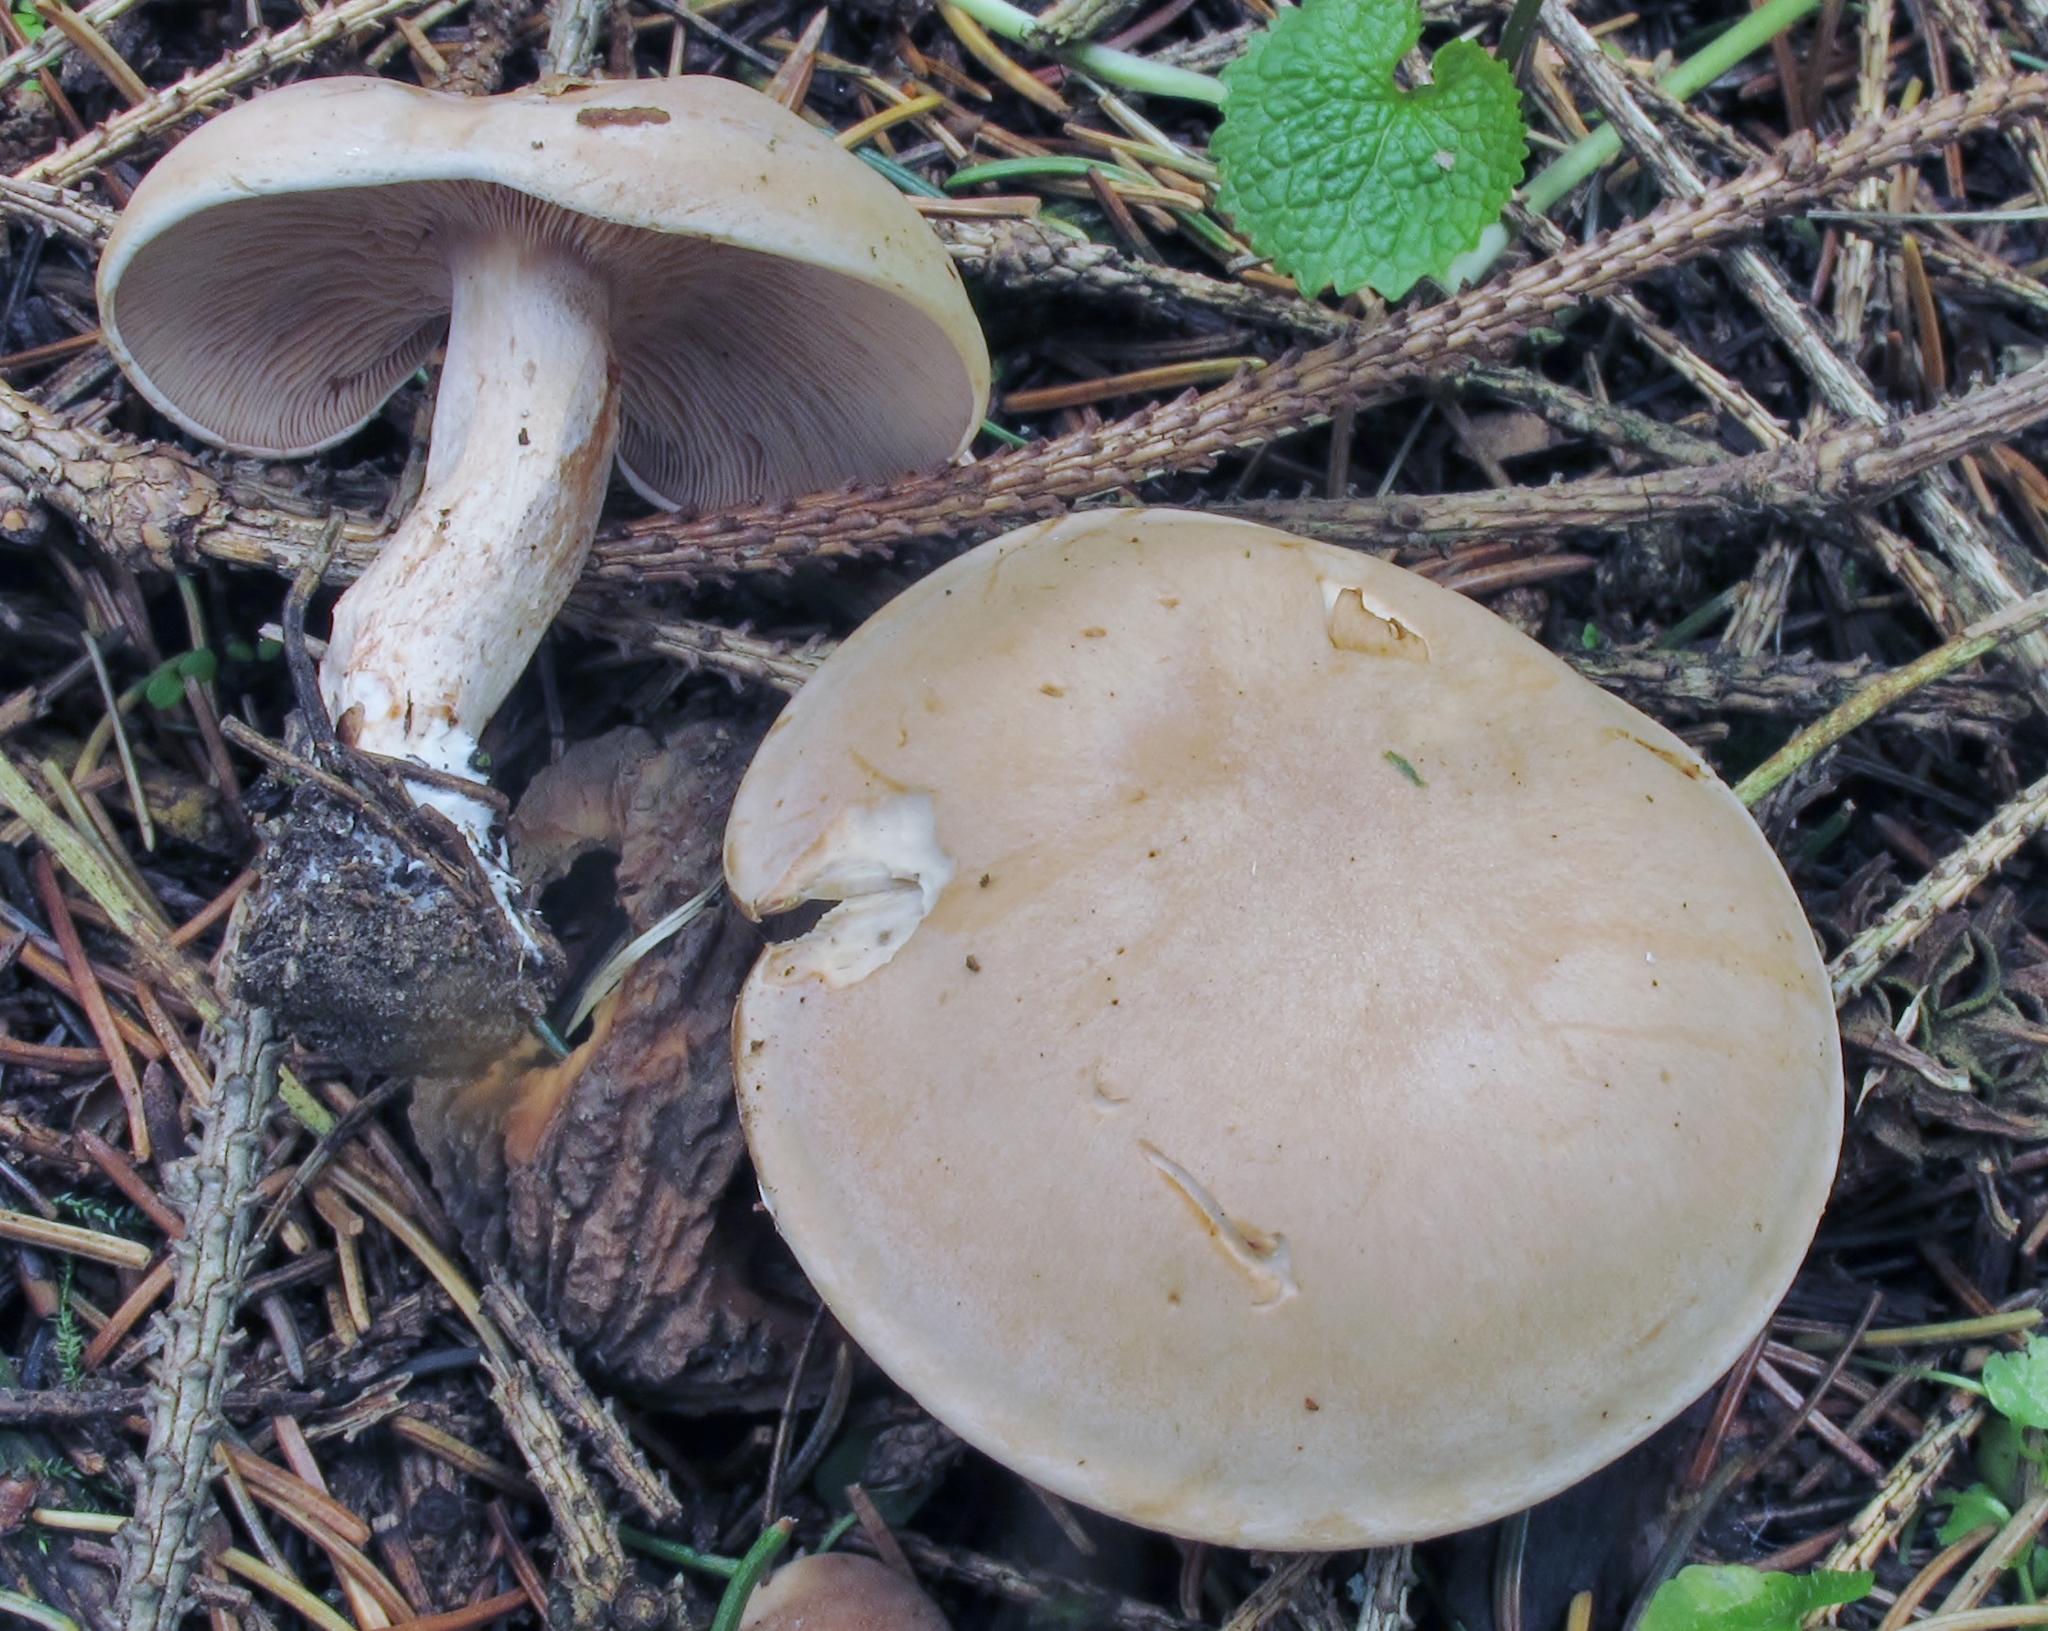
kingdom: Fungi
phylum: Basidiomycota
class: Agaricomycetes
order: Agaricales
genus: Hertzogia
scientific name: Hertzogia martiorum
